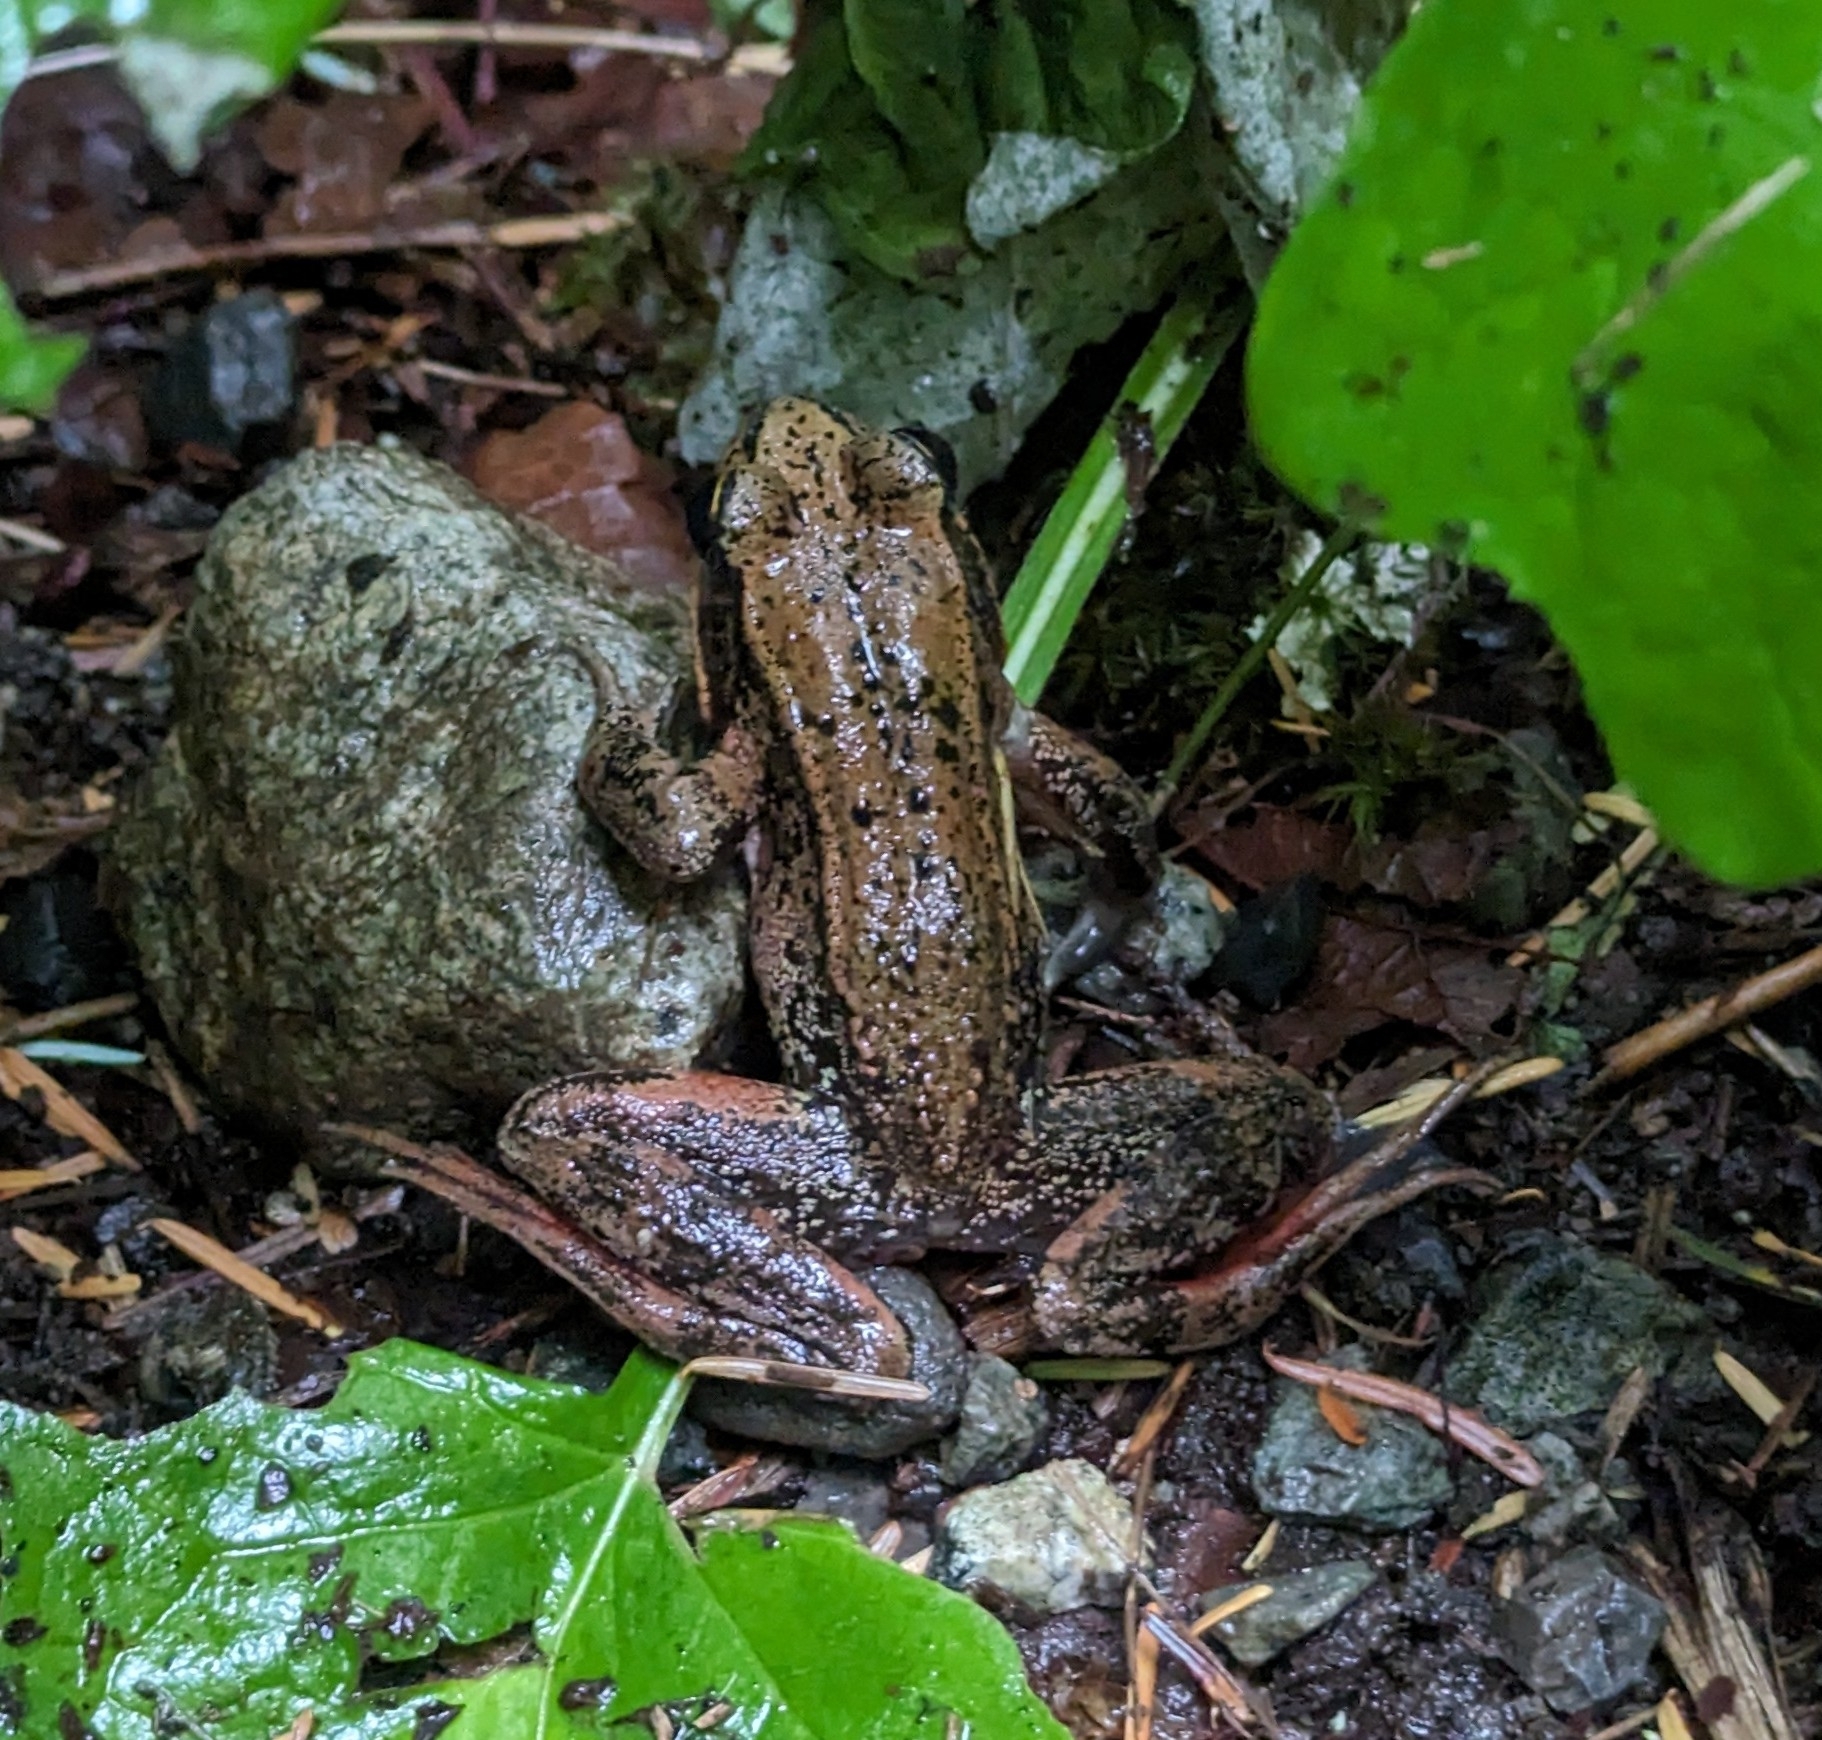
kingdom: Animalia
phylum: Chordata
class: Amphibia
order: Anura
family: Ranidae
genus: Rana
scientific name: Rana aurora
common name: Red-legged frog
